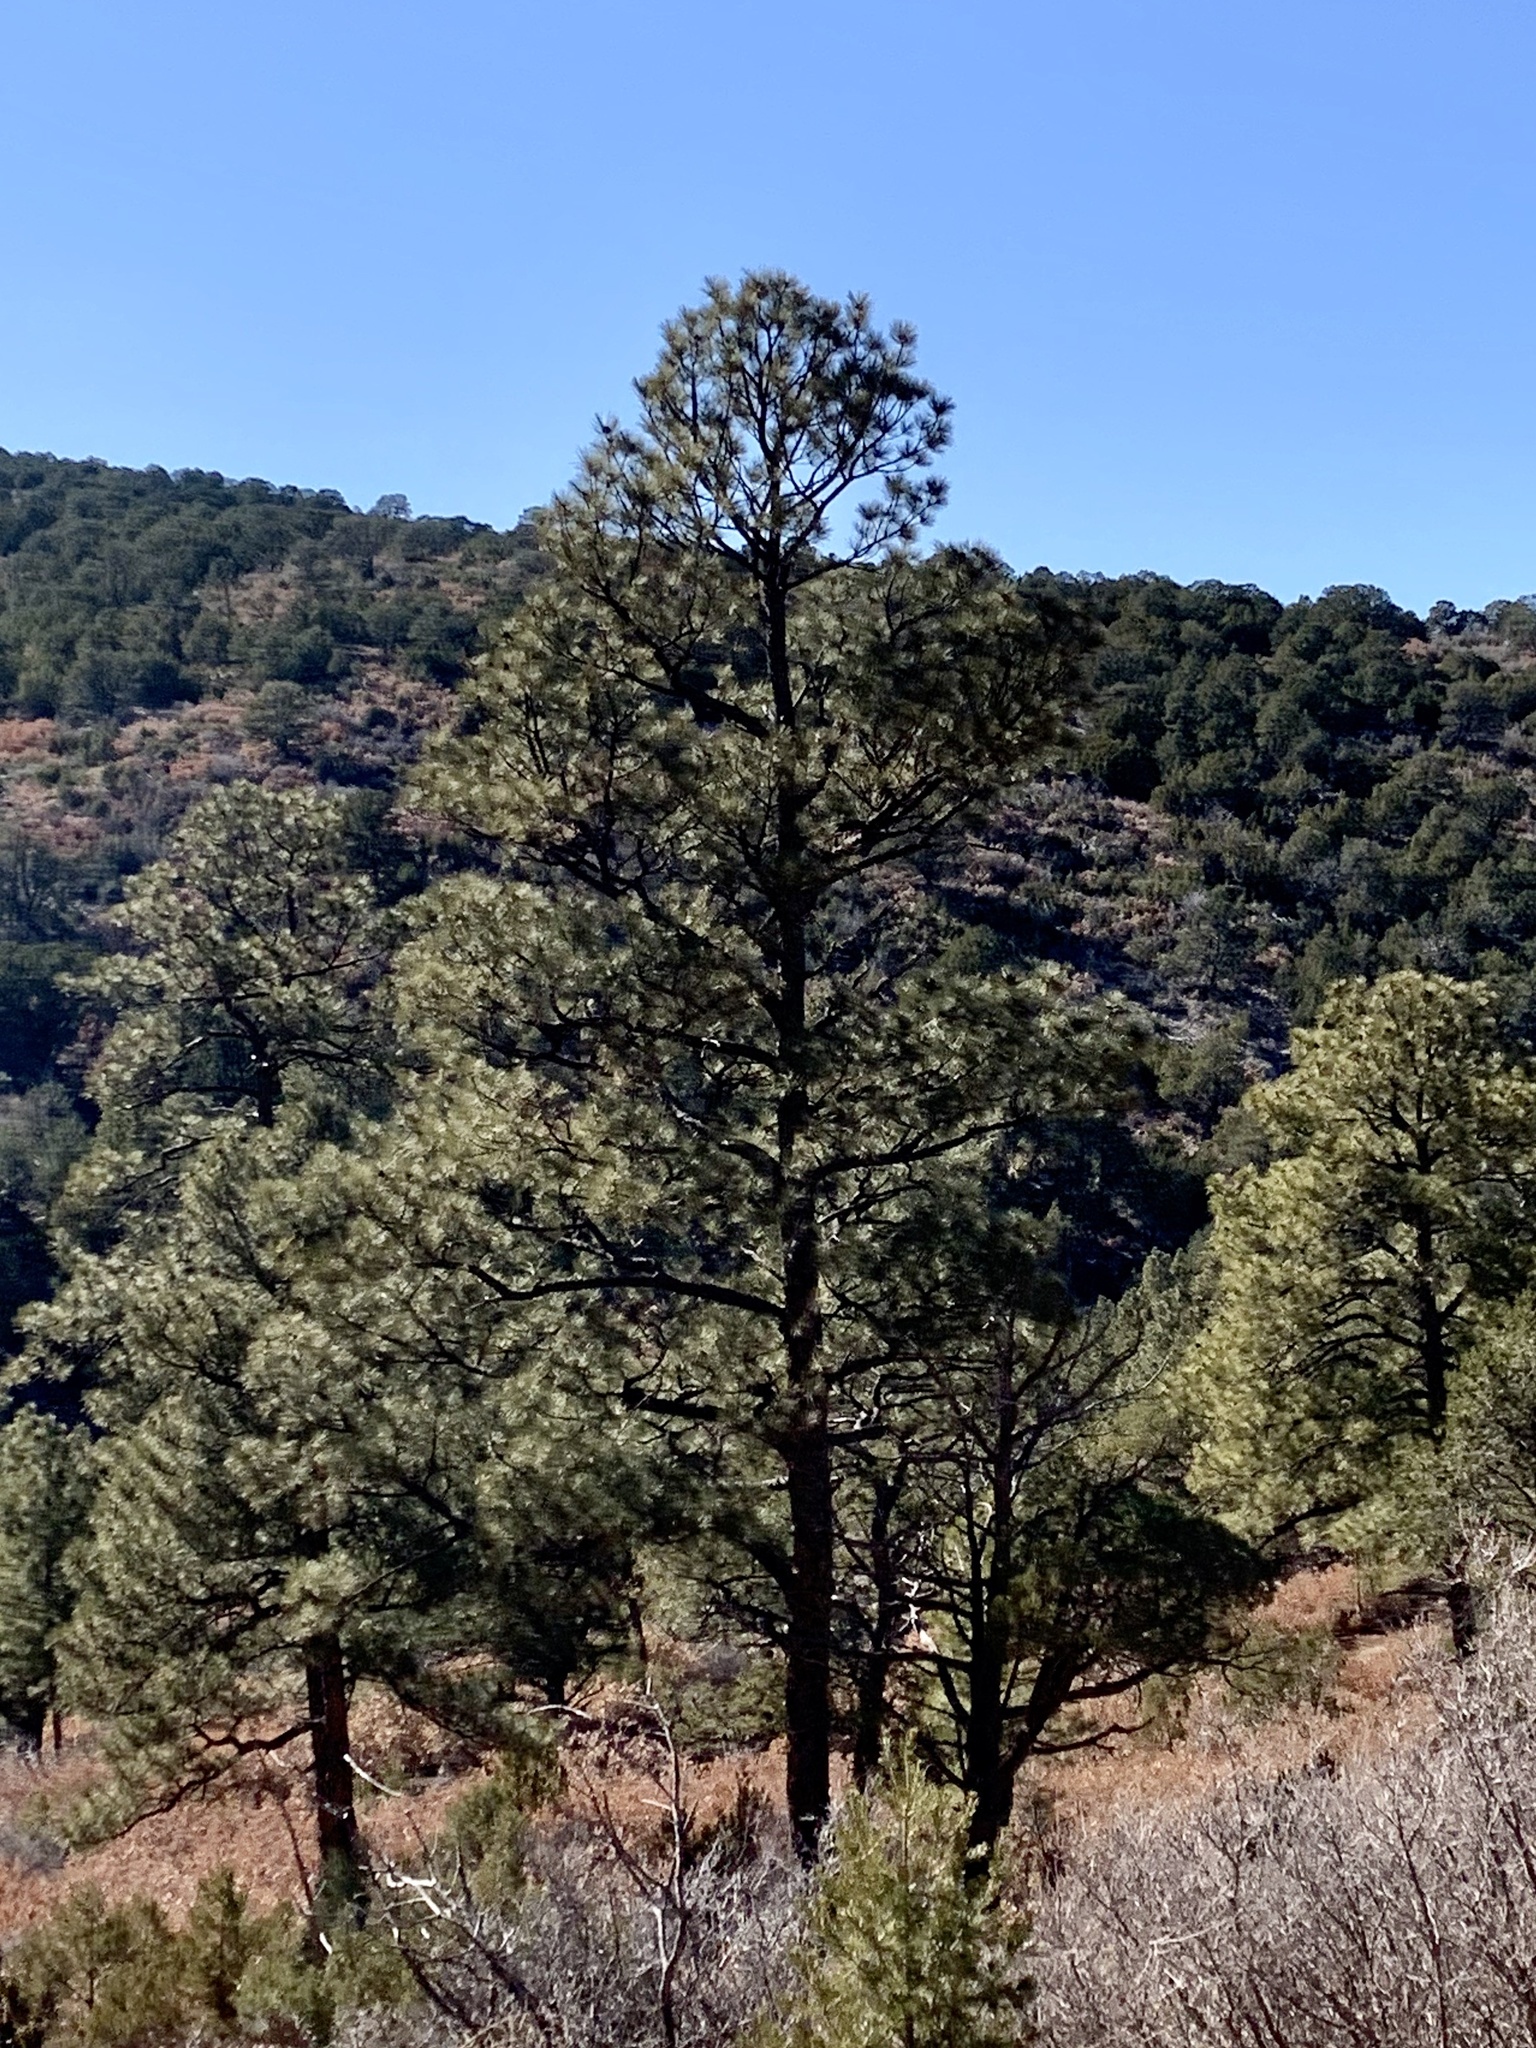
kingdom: Plantae
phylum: Tracheophyta
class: Pinopsida
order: Pinales
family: Pinaceae
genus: Pinus
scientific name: Pinus ponderosa
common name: Western yellow-pine
